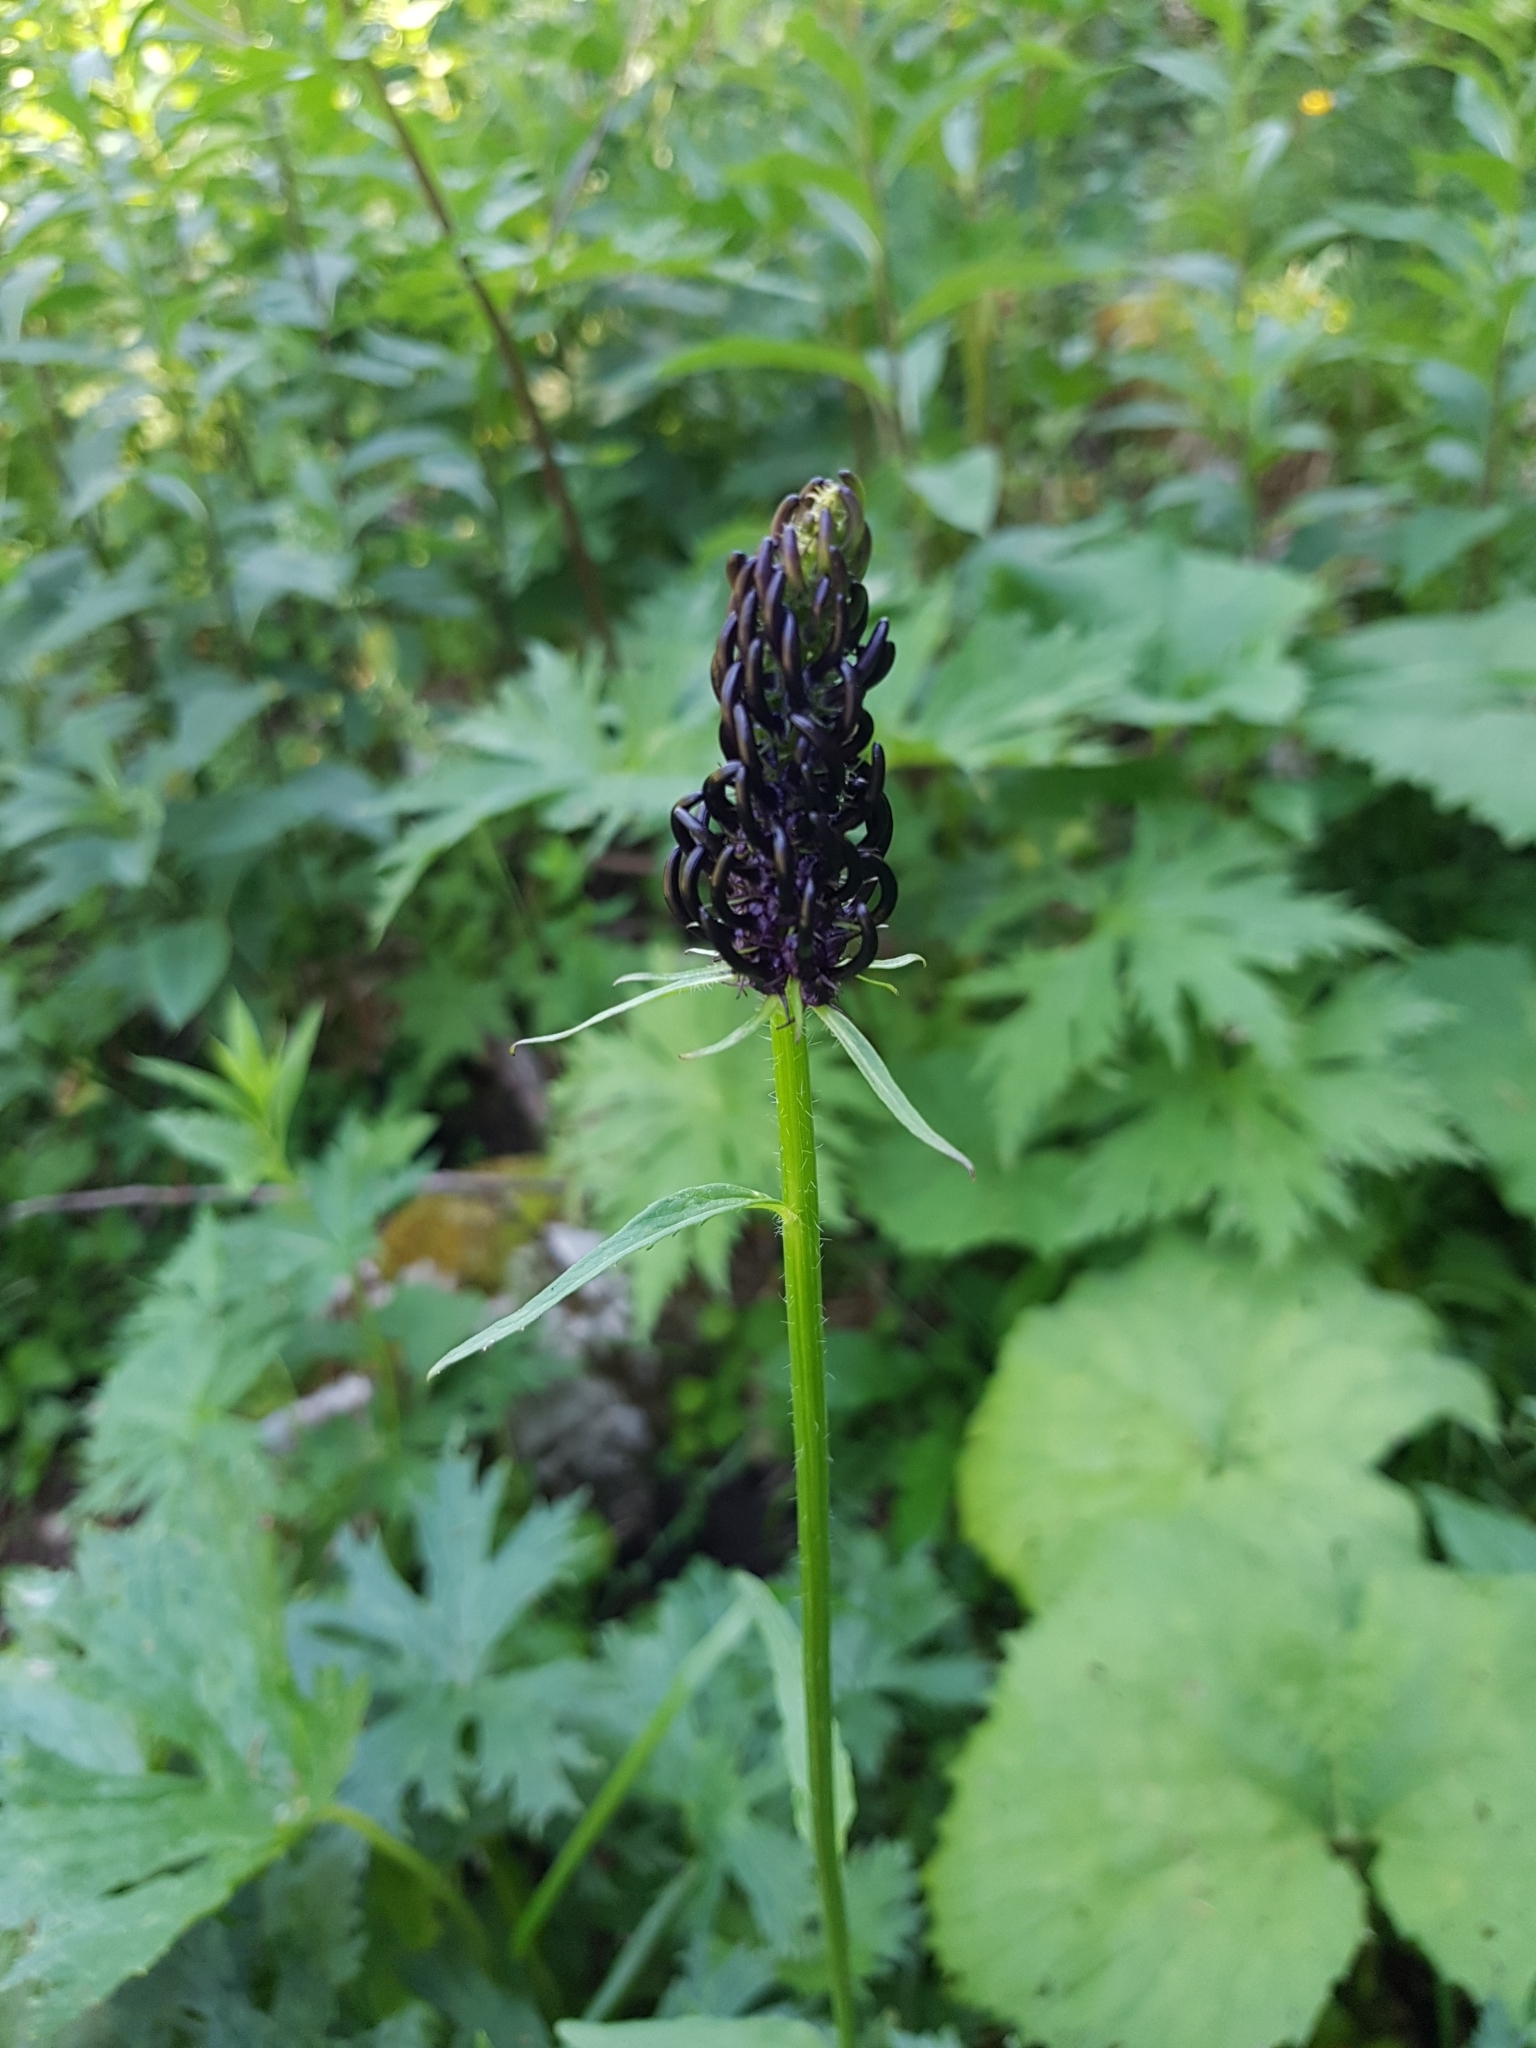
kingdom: Plantae
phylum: Tracheophyta
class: Magnoliopsida
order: Asterales
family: Campanulaceae
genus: Phyteuma
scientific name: Phyteuma ovatum
